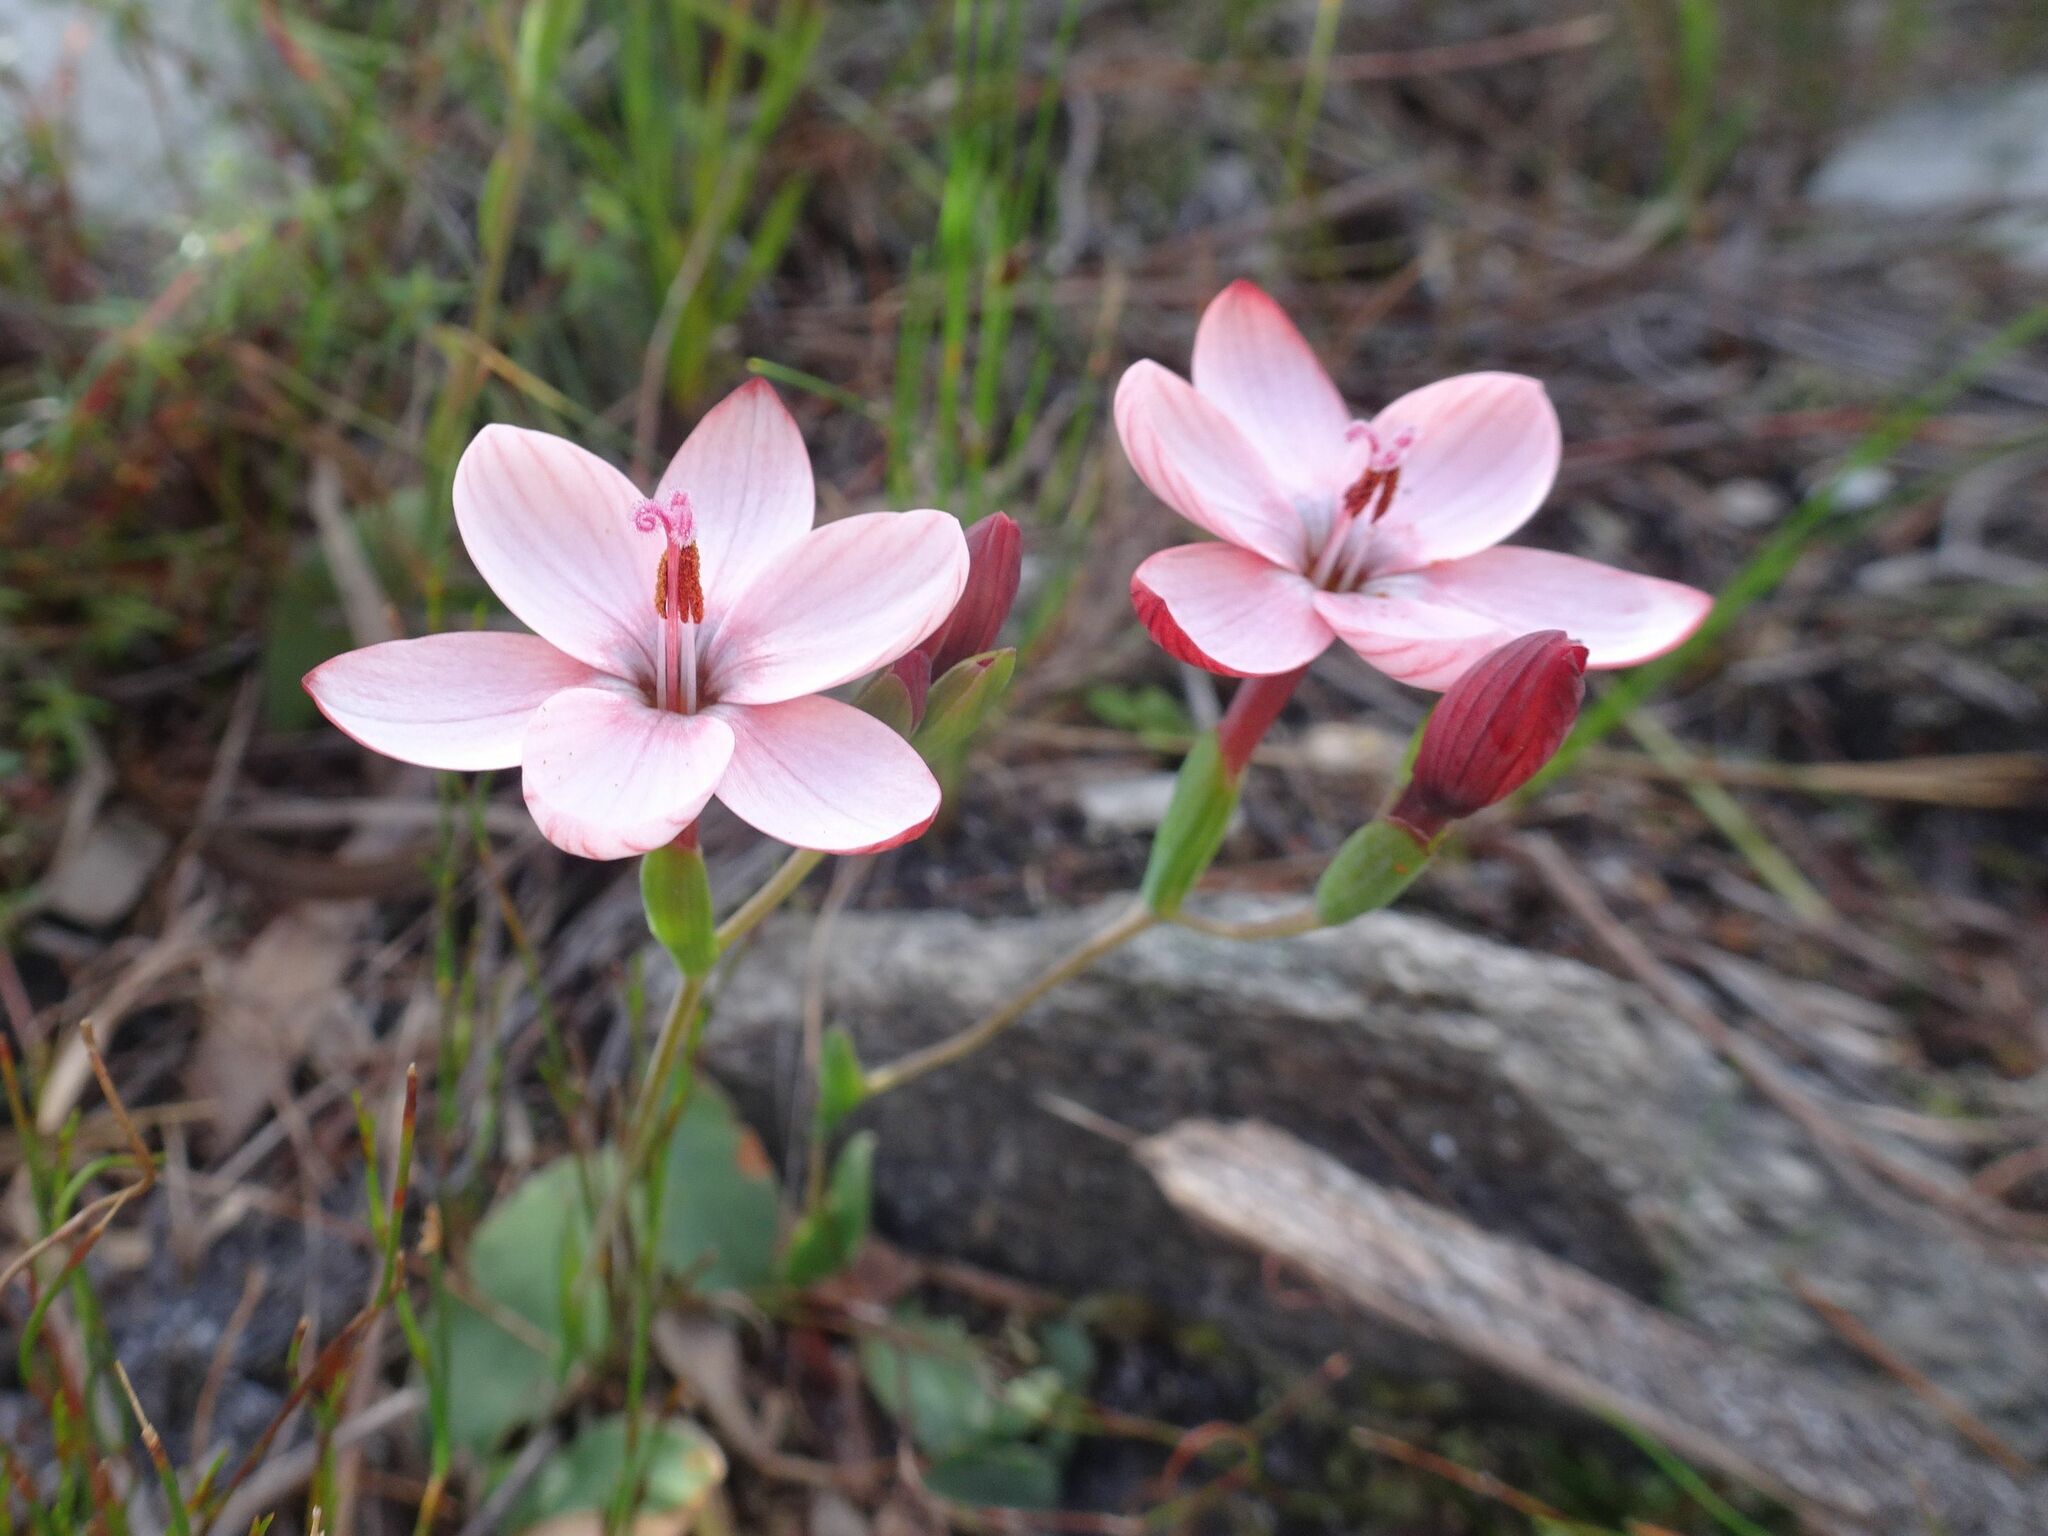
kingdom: Plantae
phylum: Tracheophyta
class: Liliopsida
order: Asparagales
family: Iridaceae
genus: Geissorhiza
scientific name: Geissorhiza ovata
